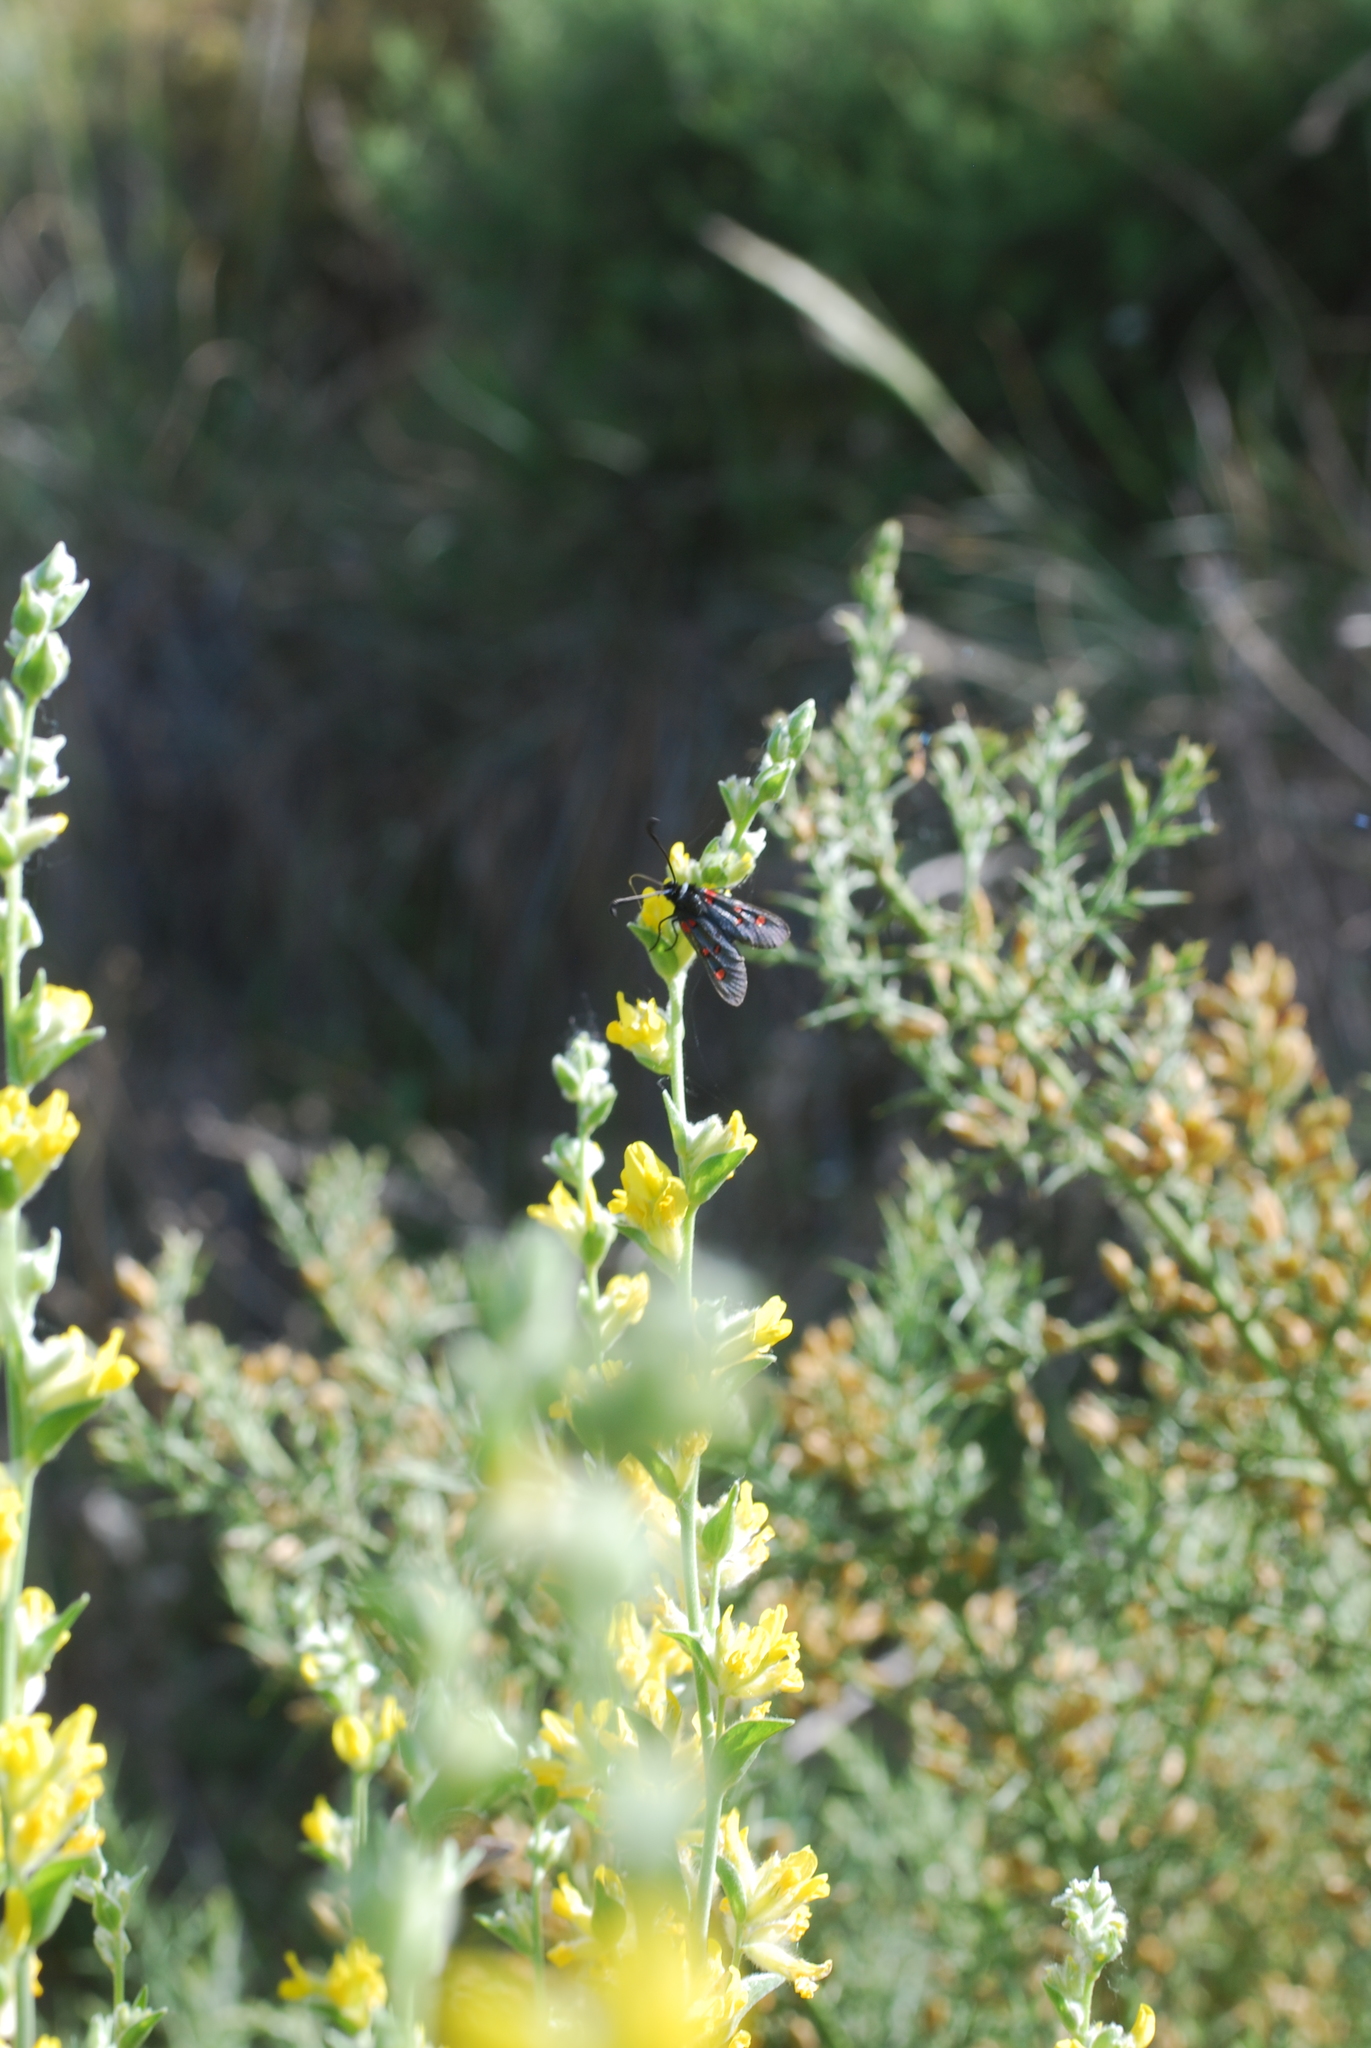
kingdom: Animalia
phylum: Arthropoda
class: Insecta
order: Lepidoptera
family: Zygaenidae
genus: Zygaena
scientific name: Zygaena lavandulae
